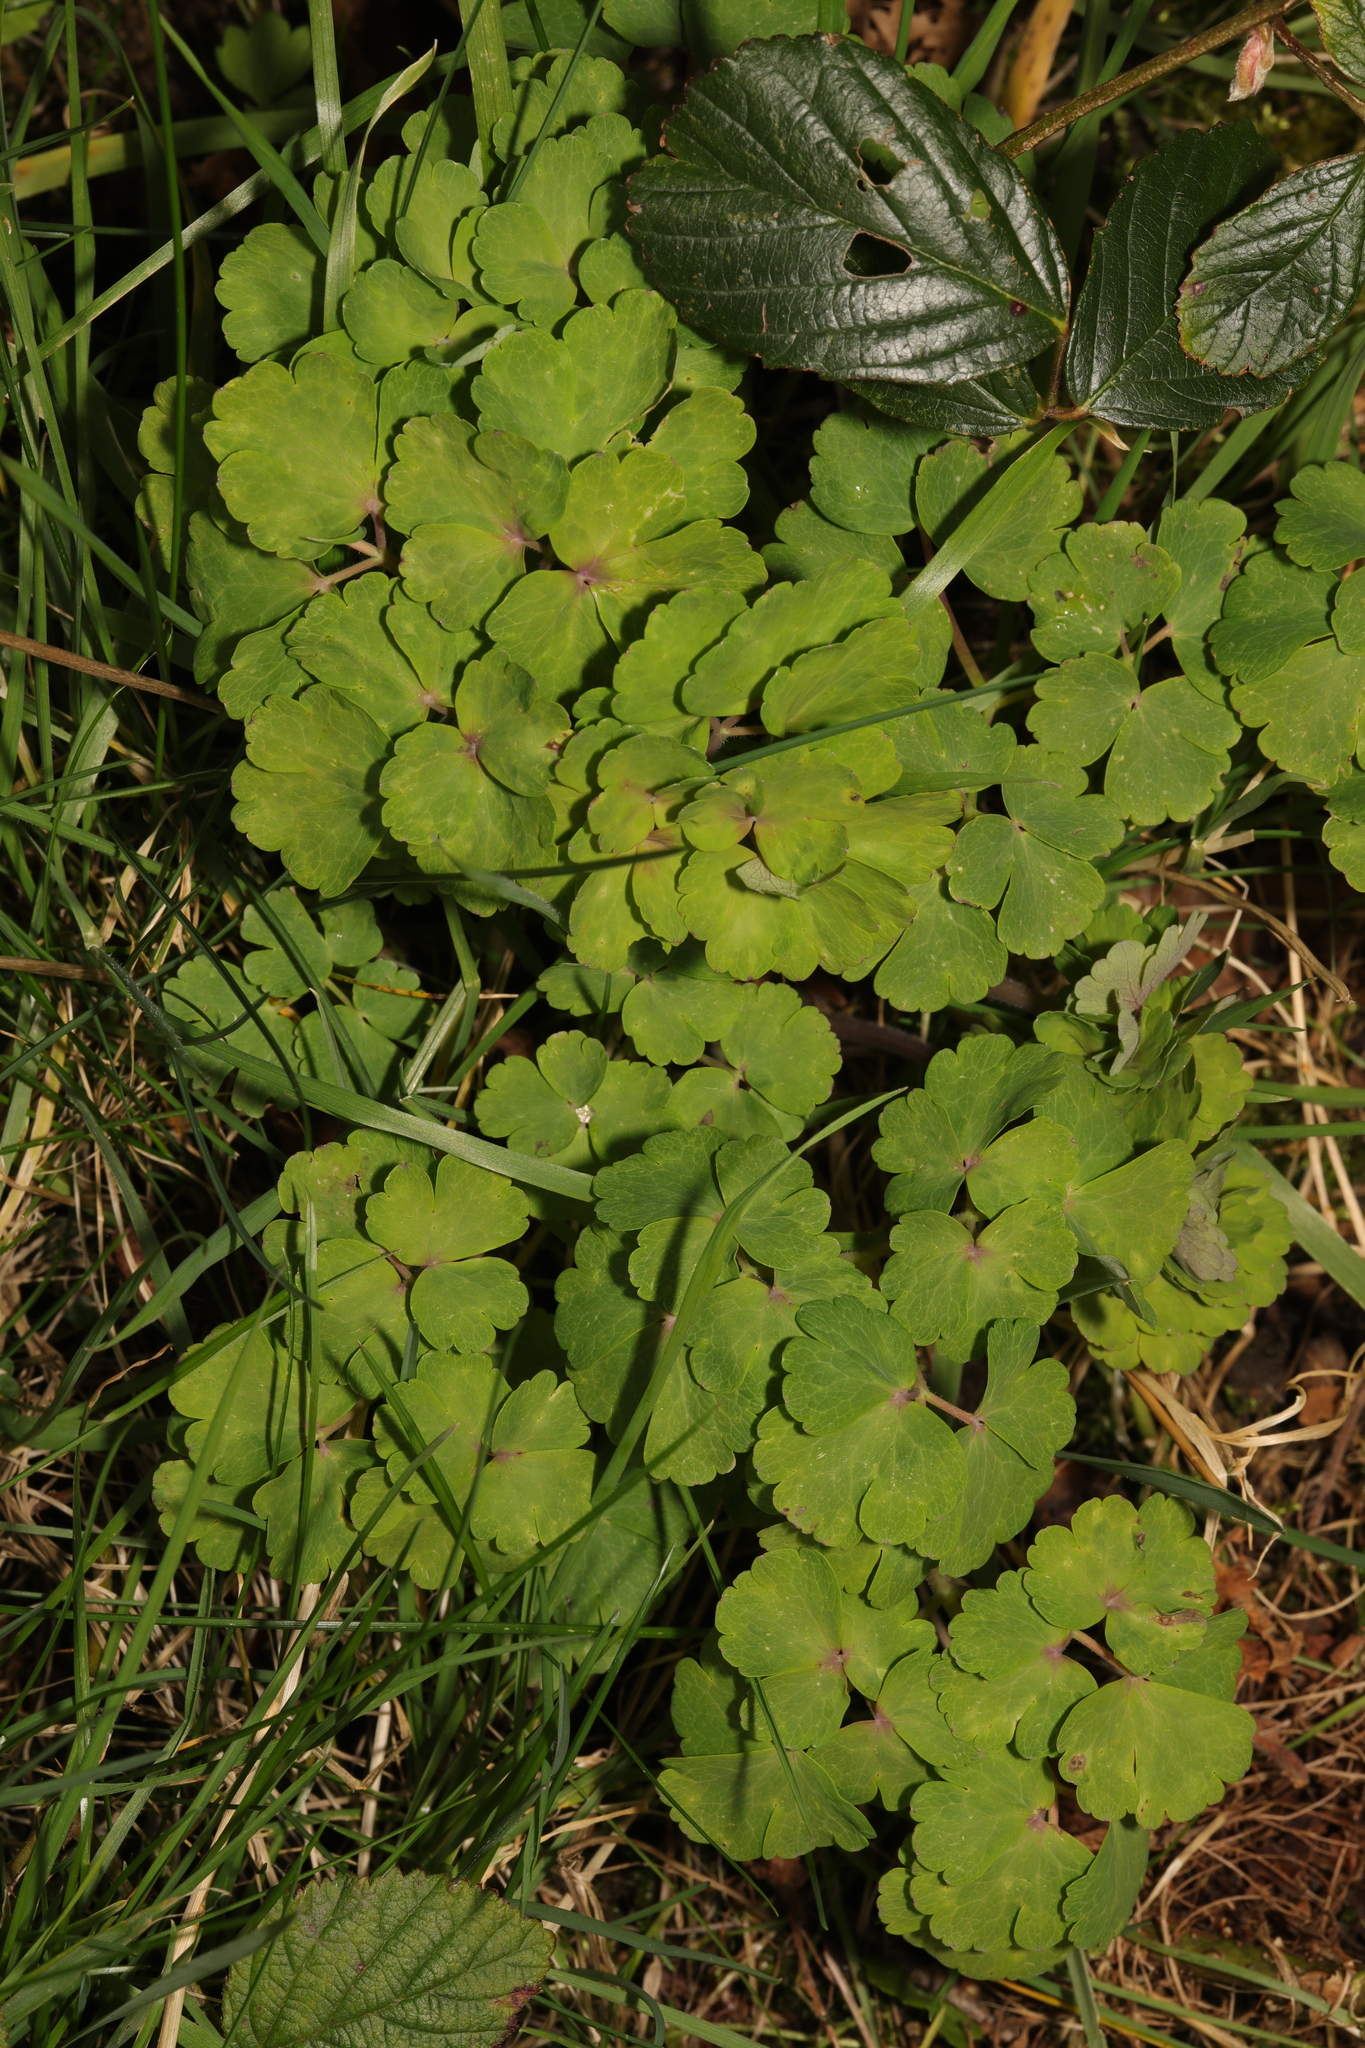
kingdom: Plantae
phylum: Tracheophyta
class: Magnoliopsida
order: Ranunculales
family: Ranunculaceae
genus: Aquilegia
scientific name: Aquilegia vulgaris
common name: Columbine
